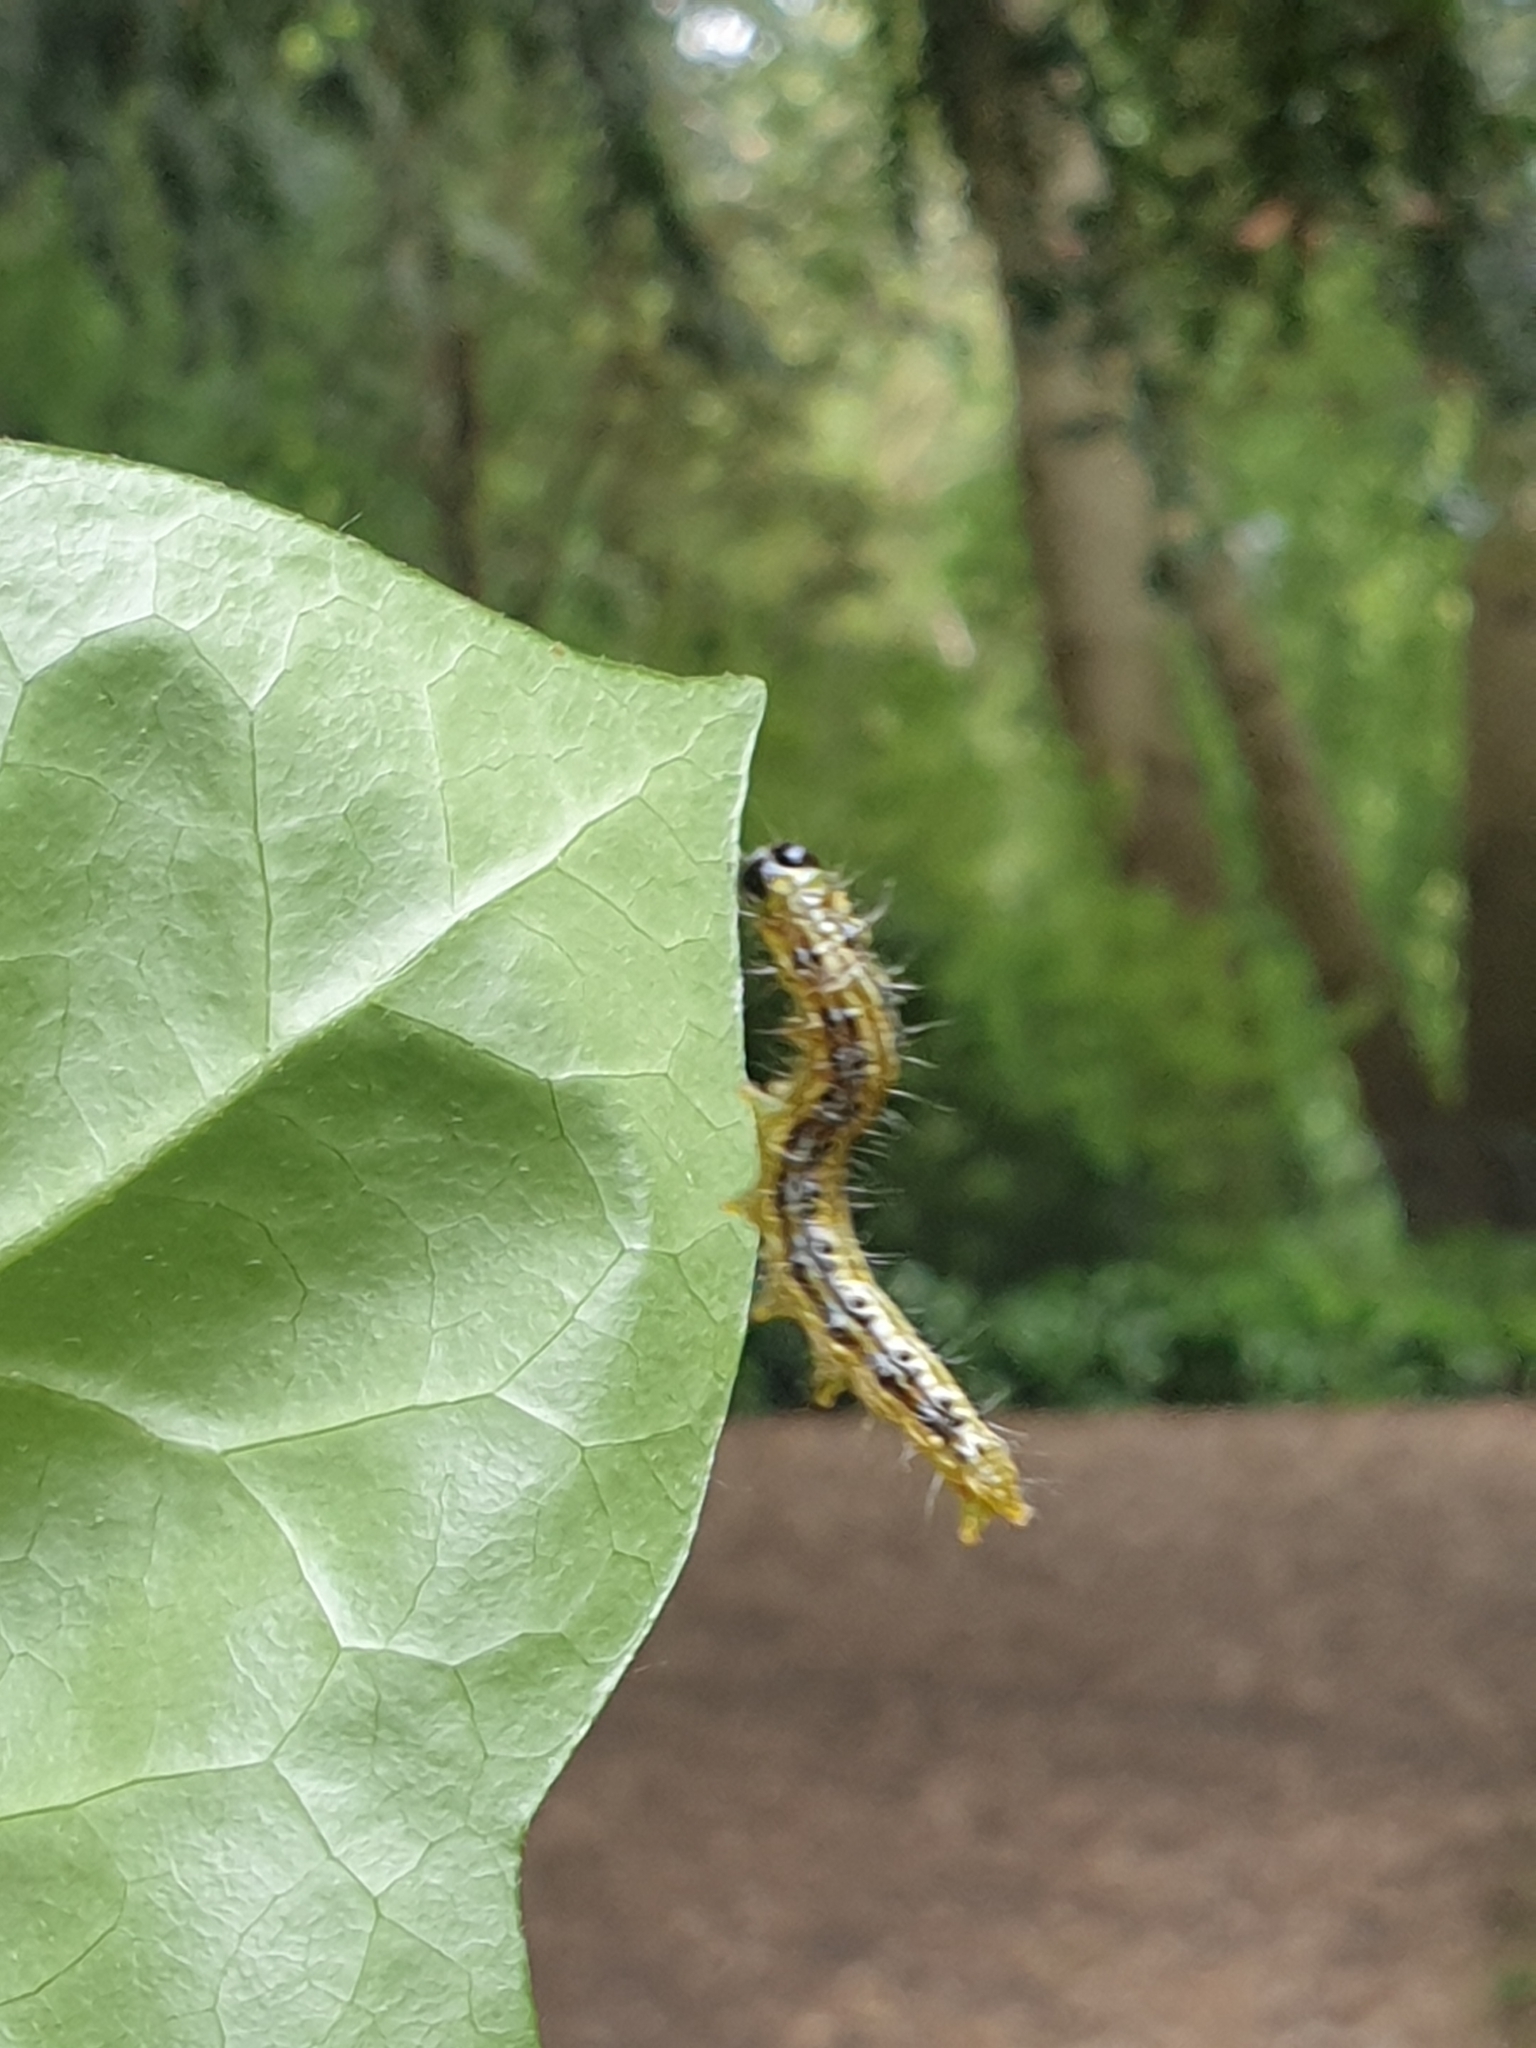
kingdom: Animalia
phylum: Arthropoda
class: Insecta
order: Lepidoptera
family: Crambidae
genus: Cydalima
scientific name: Cydalima perspectalis
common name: Box tree moth
